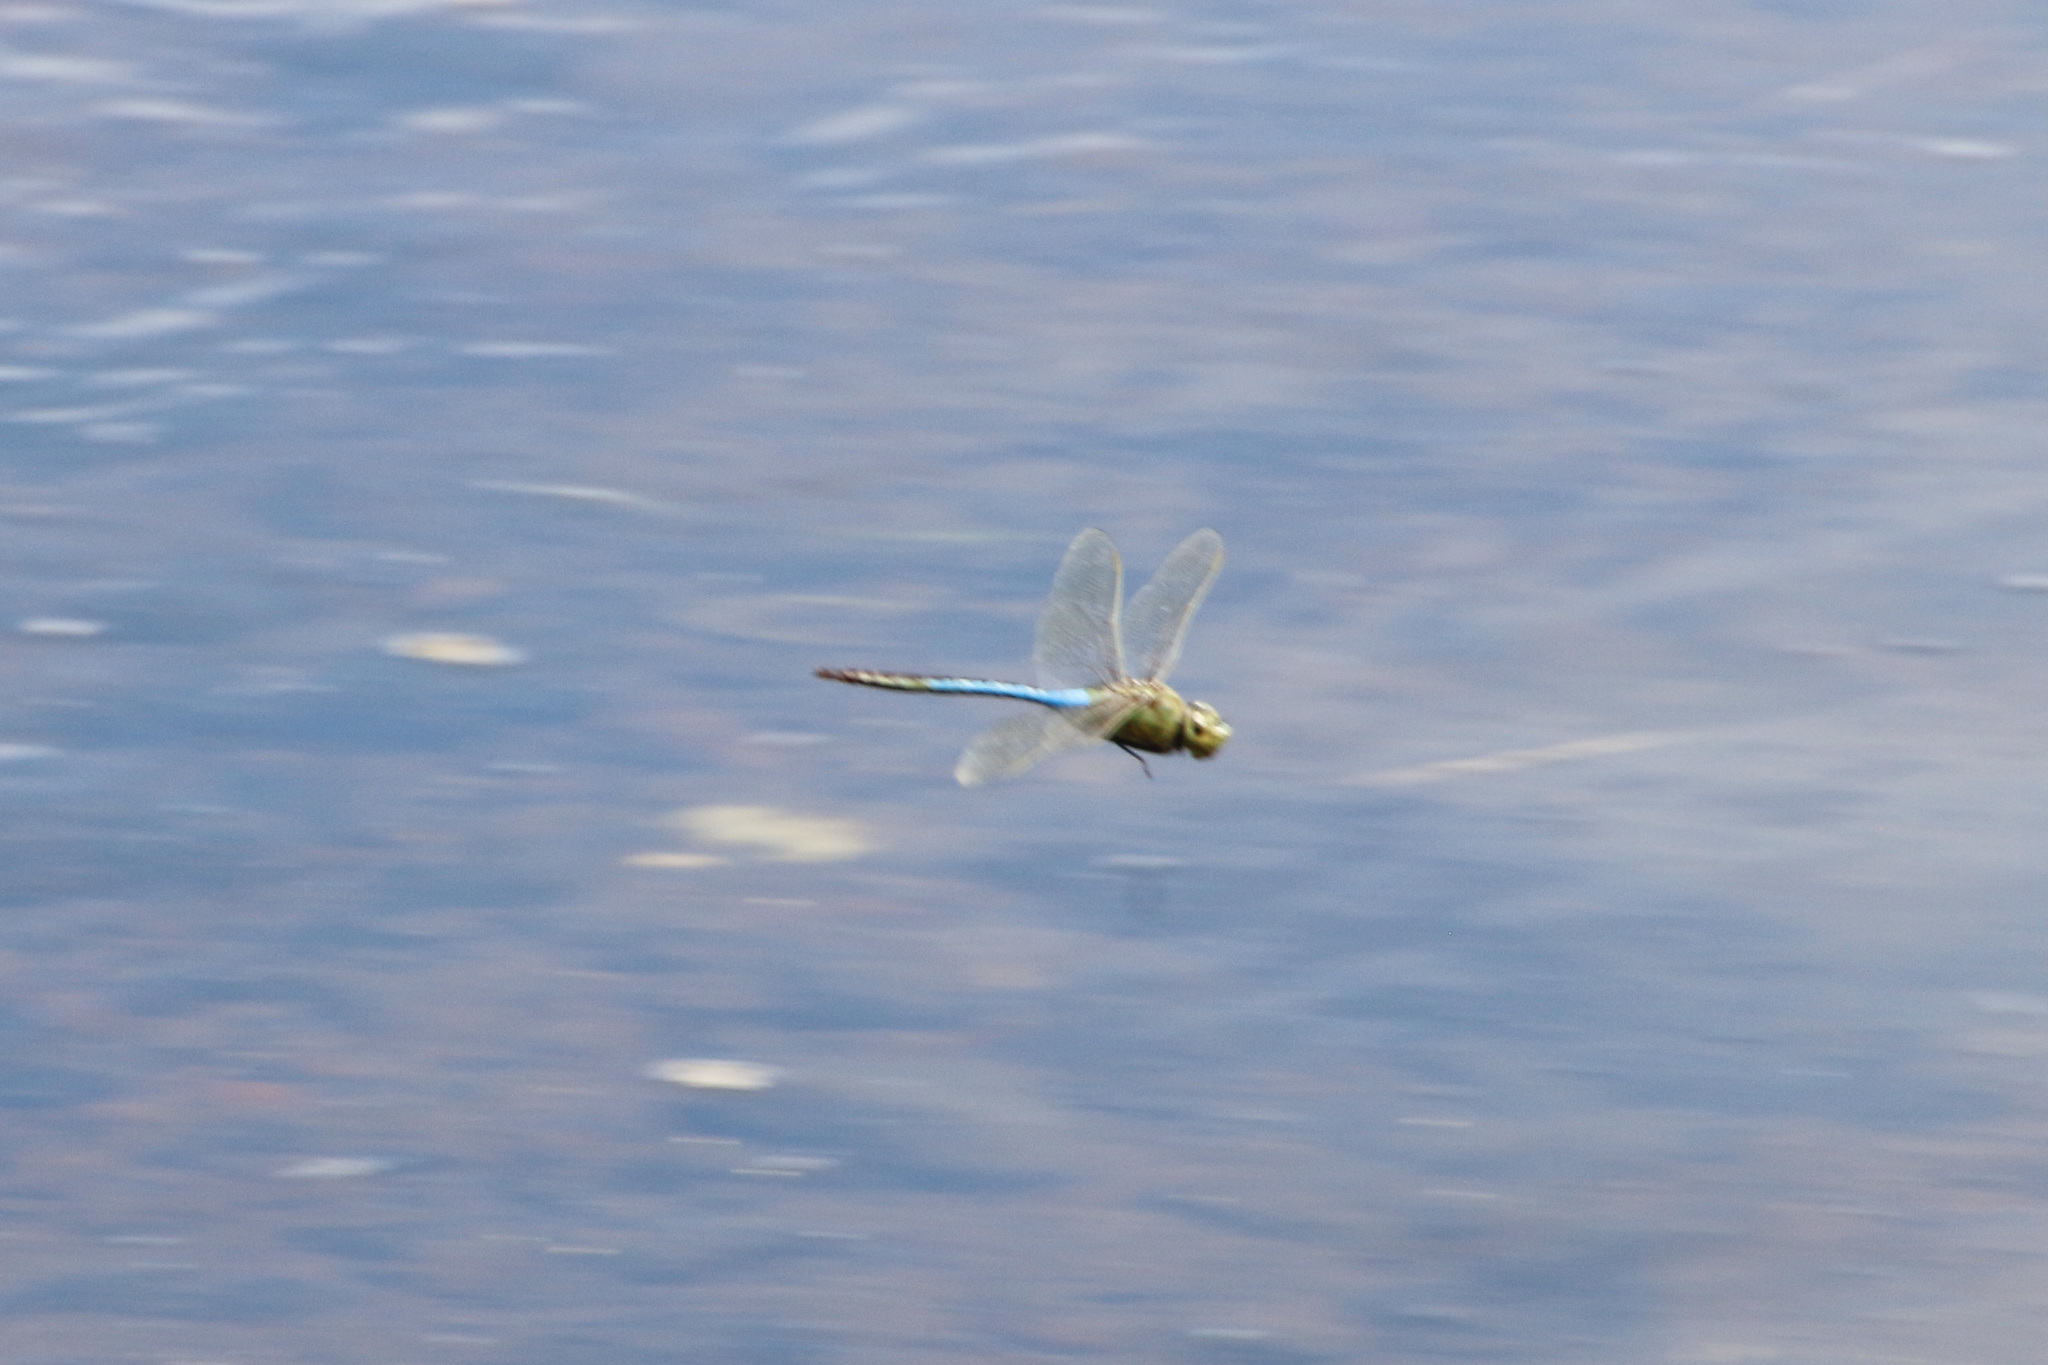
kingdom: Animalia
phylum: Arthropoda
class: Insecta
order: Odonata
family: Aeshnidae
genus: Anax
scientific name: Anax junius
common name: Common green darner
